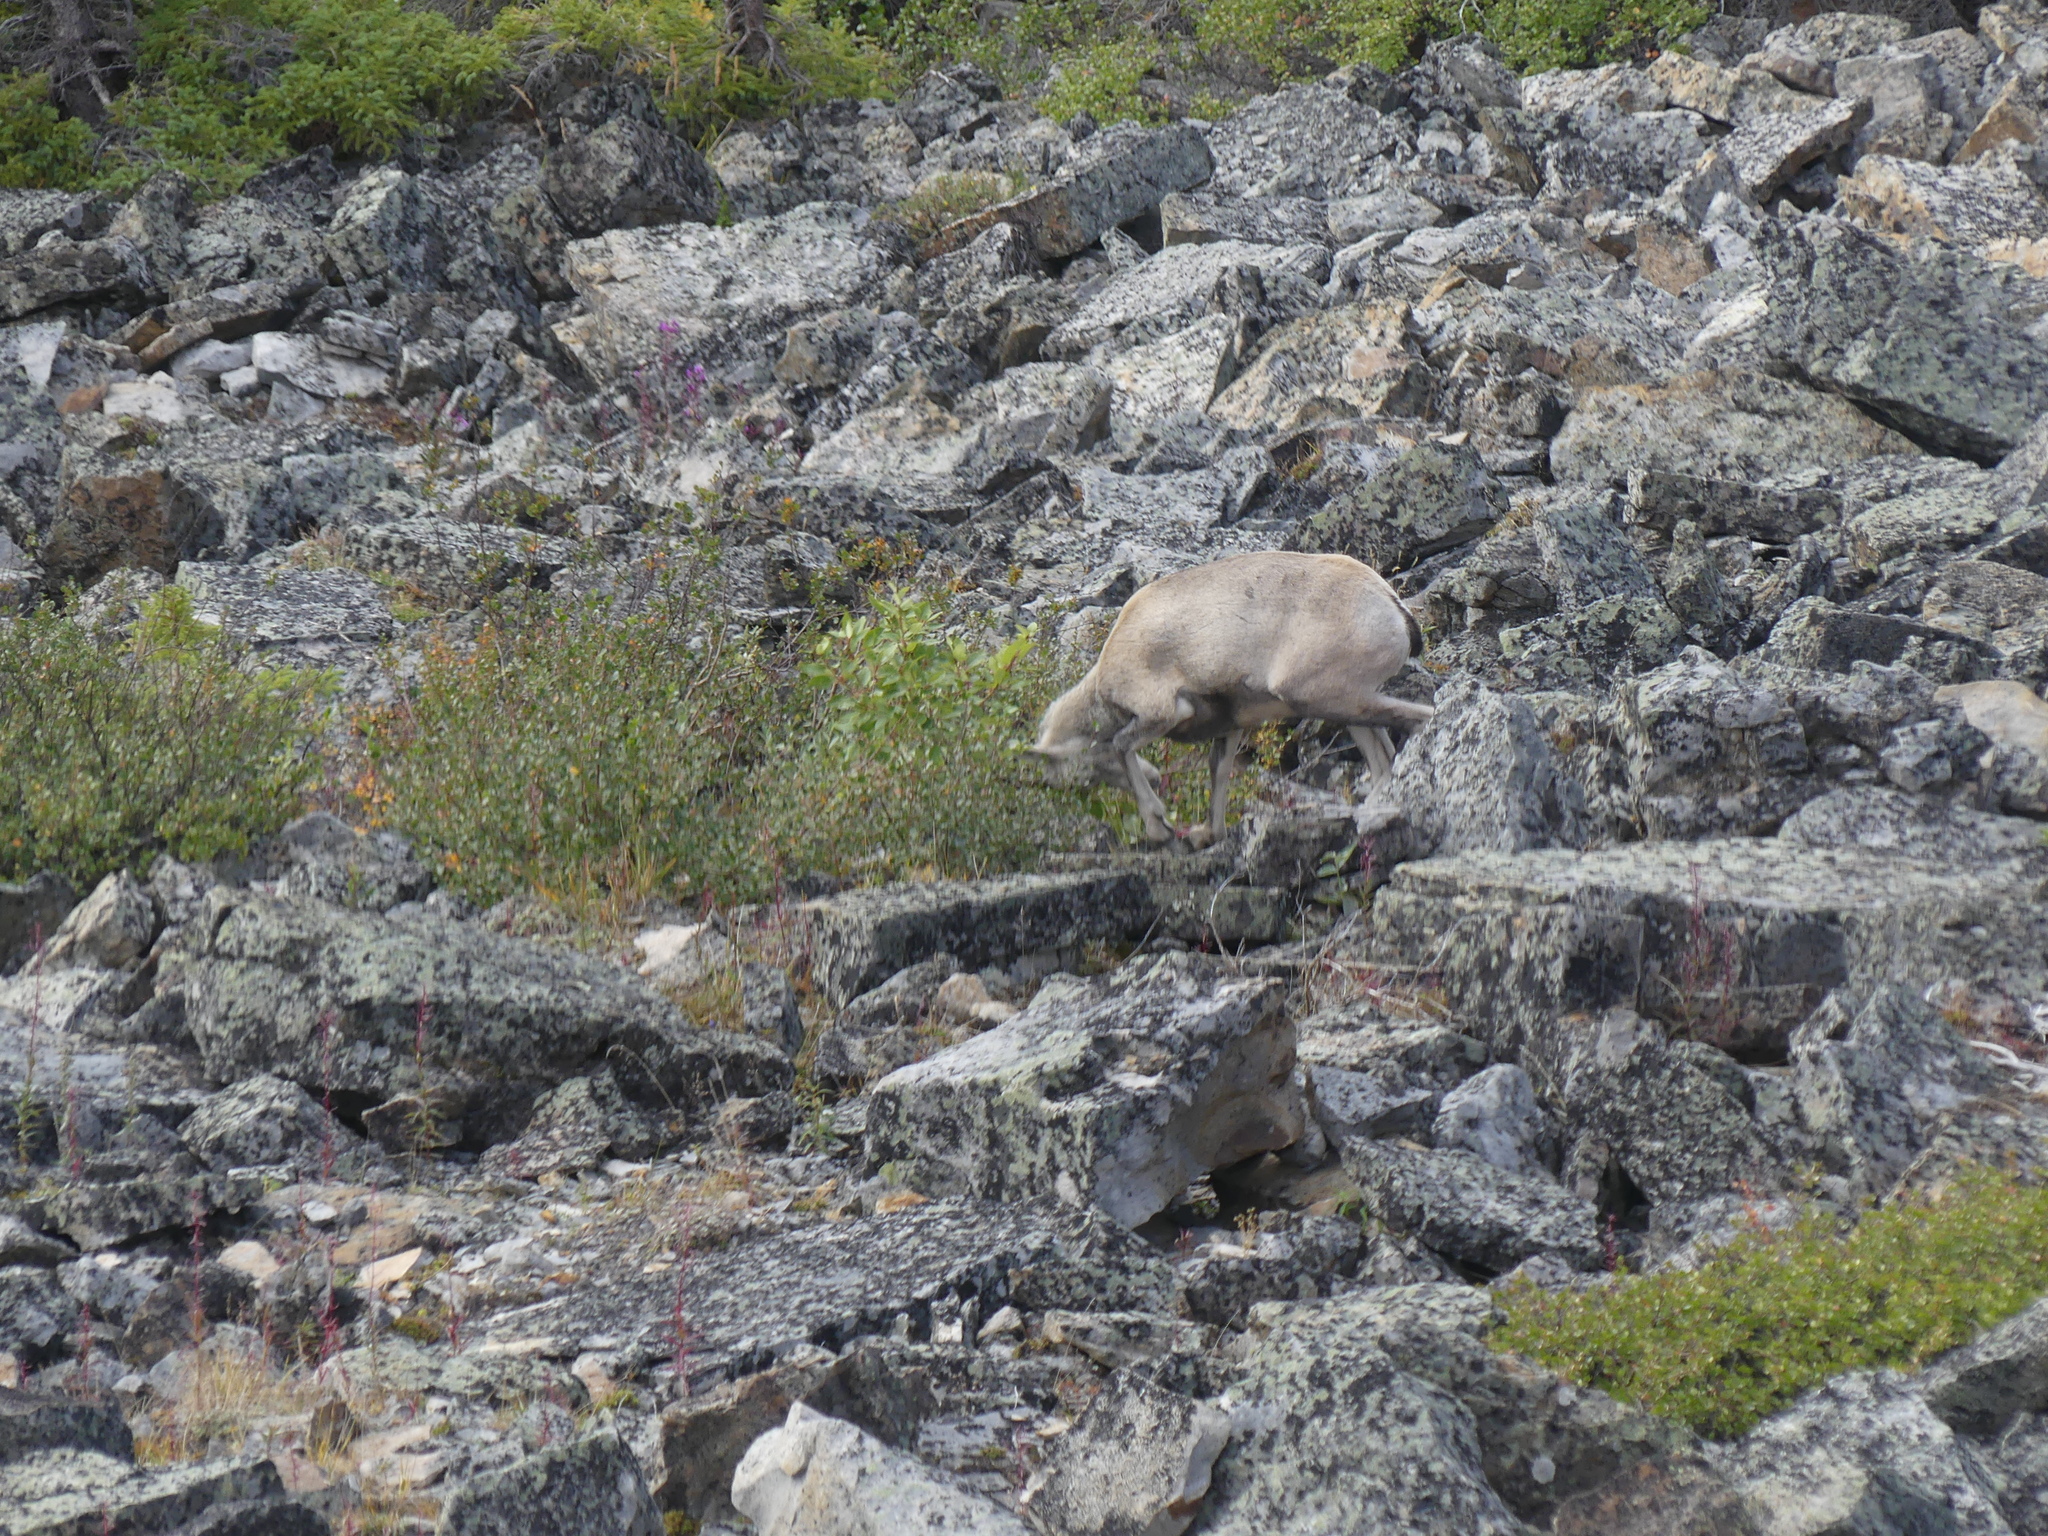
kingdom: Animalia
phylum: Chordata
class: Mammalia
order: Artiodactyla
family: Bovidae
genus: Ovis
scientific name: Ovis dalli
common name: Dall's sheep
